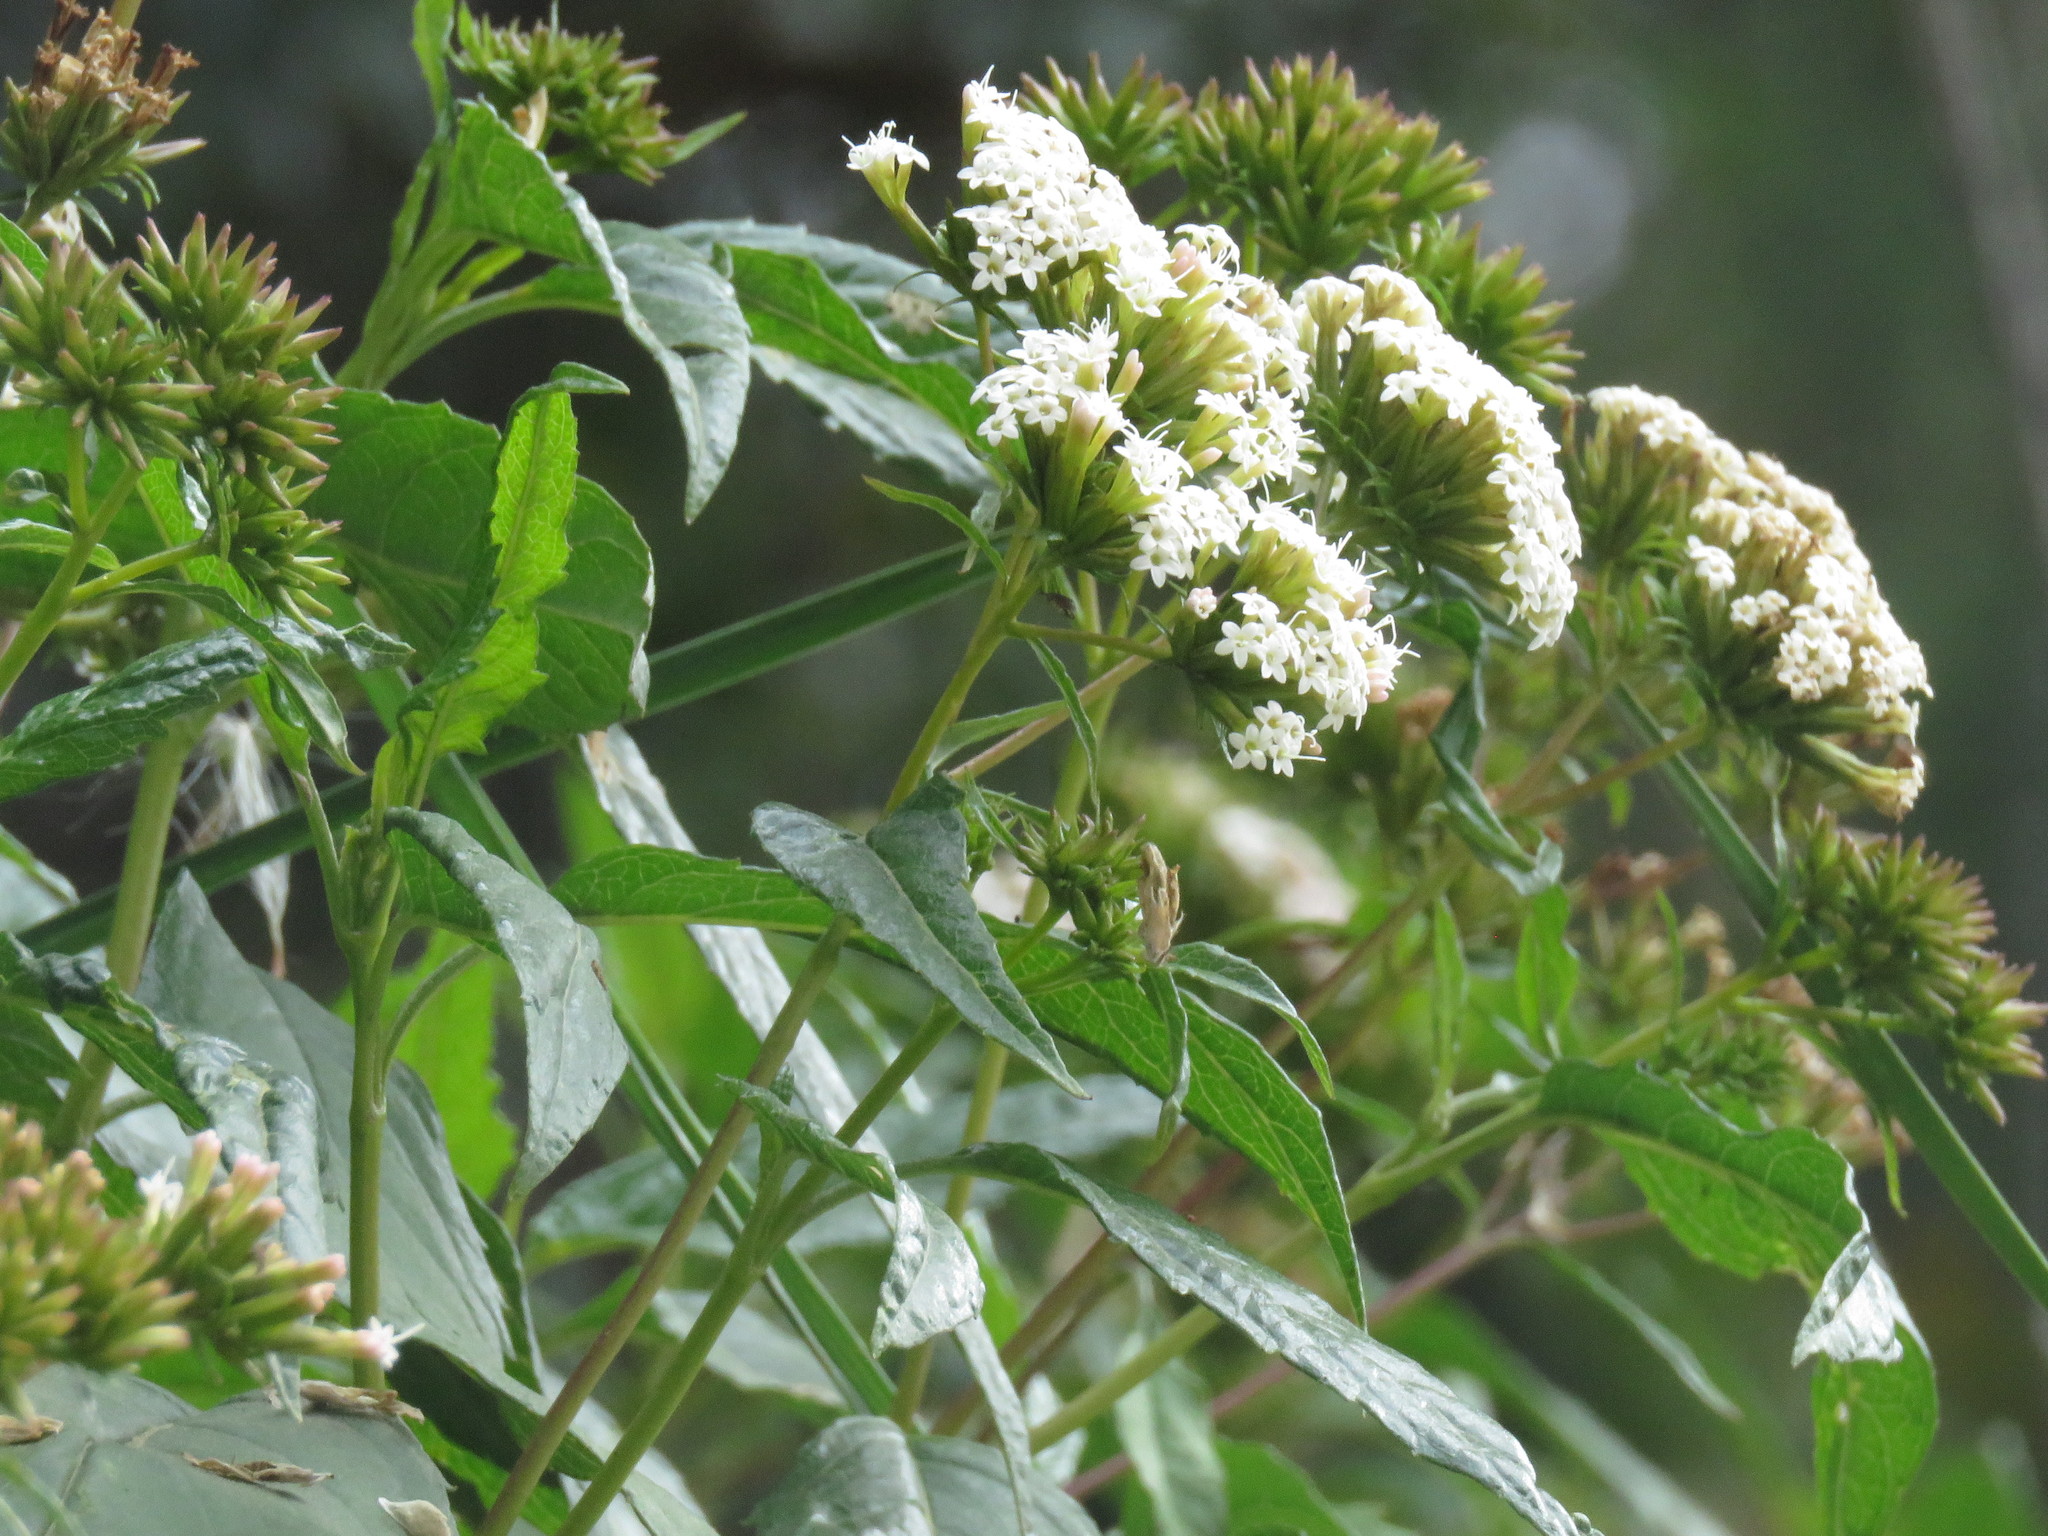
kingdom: Plantae
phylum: Tracheophyta
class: Magnoliopsida
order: Asterales
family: Asteraceae
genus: Stevia
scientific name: Stevia lucida
